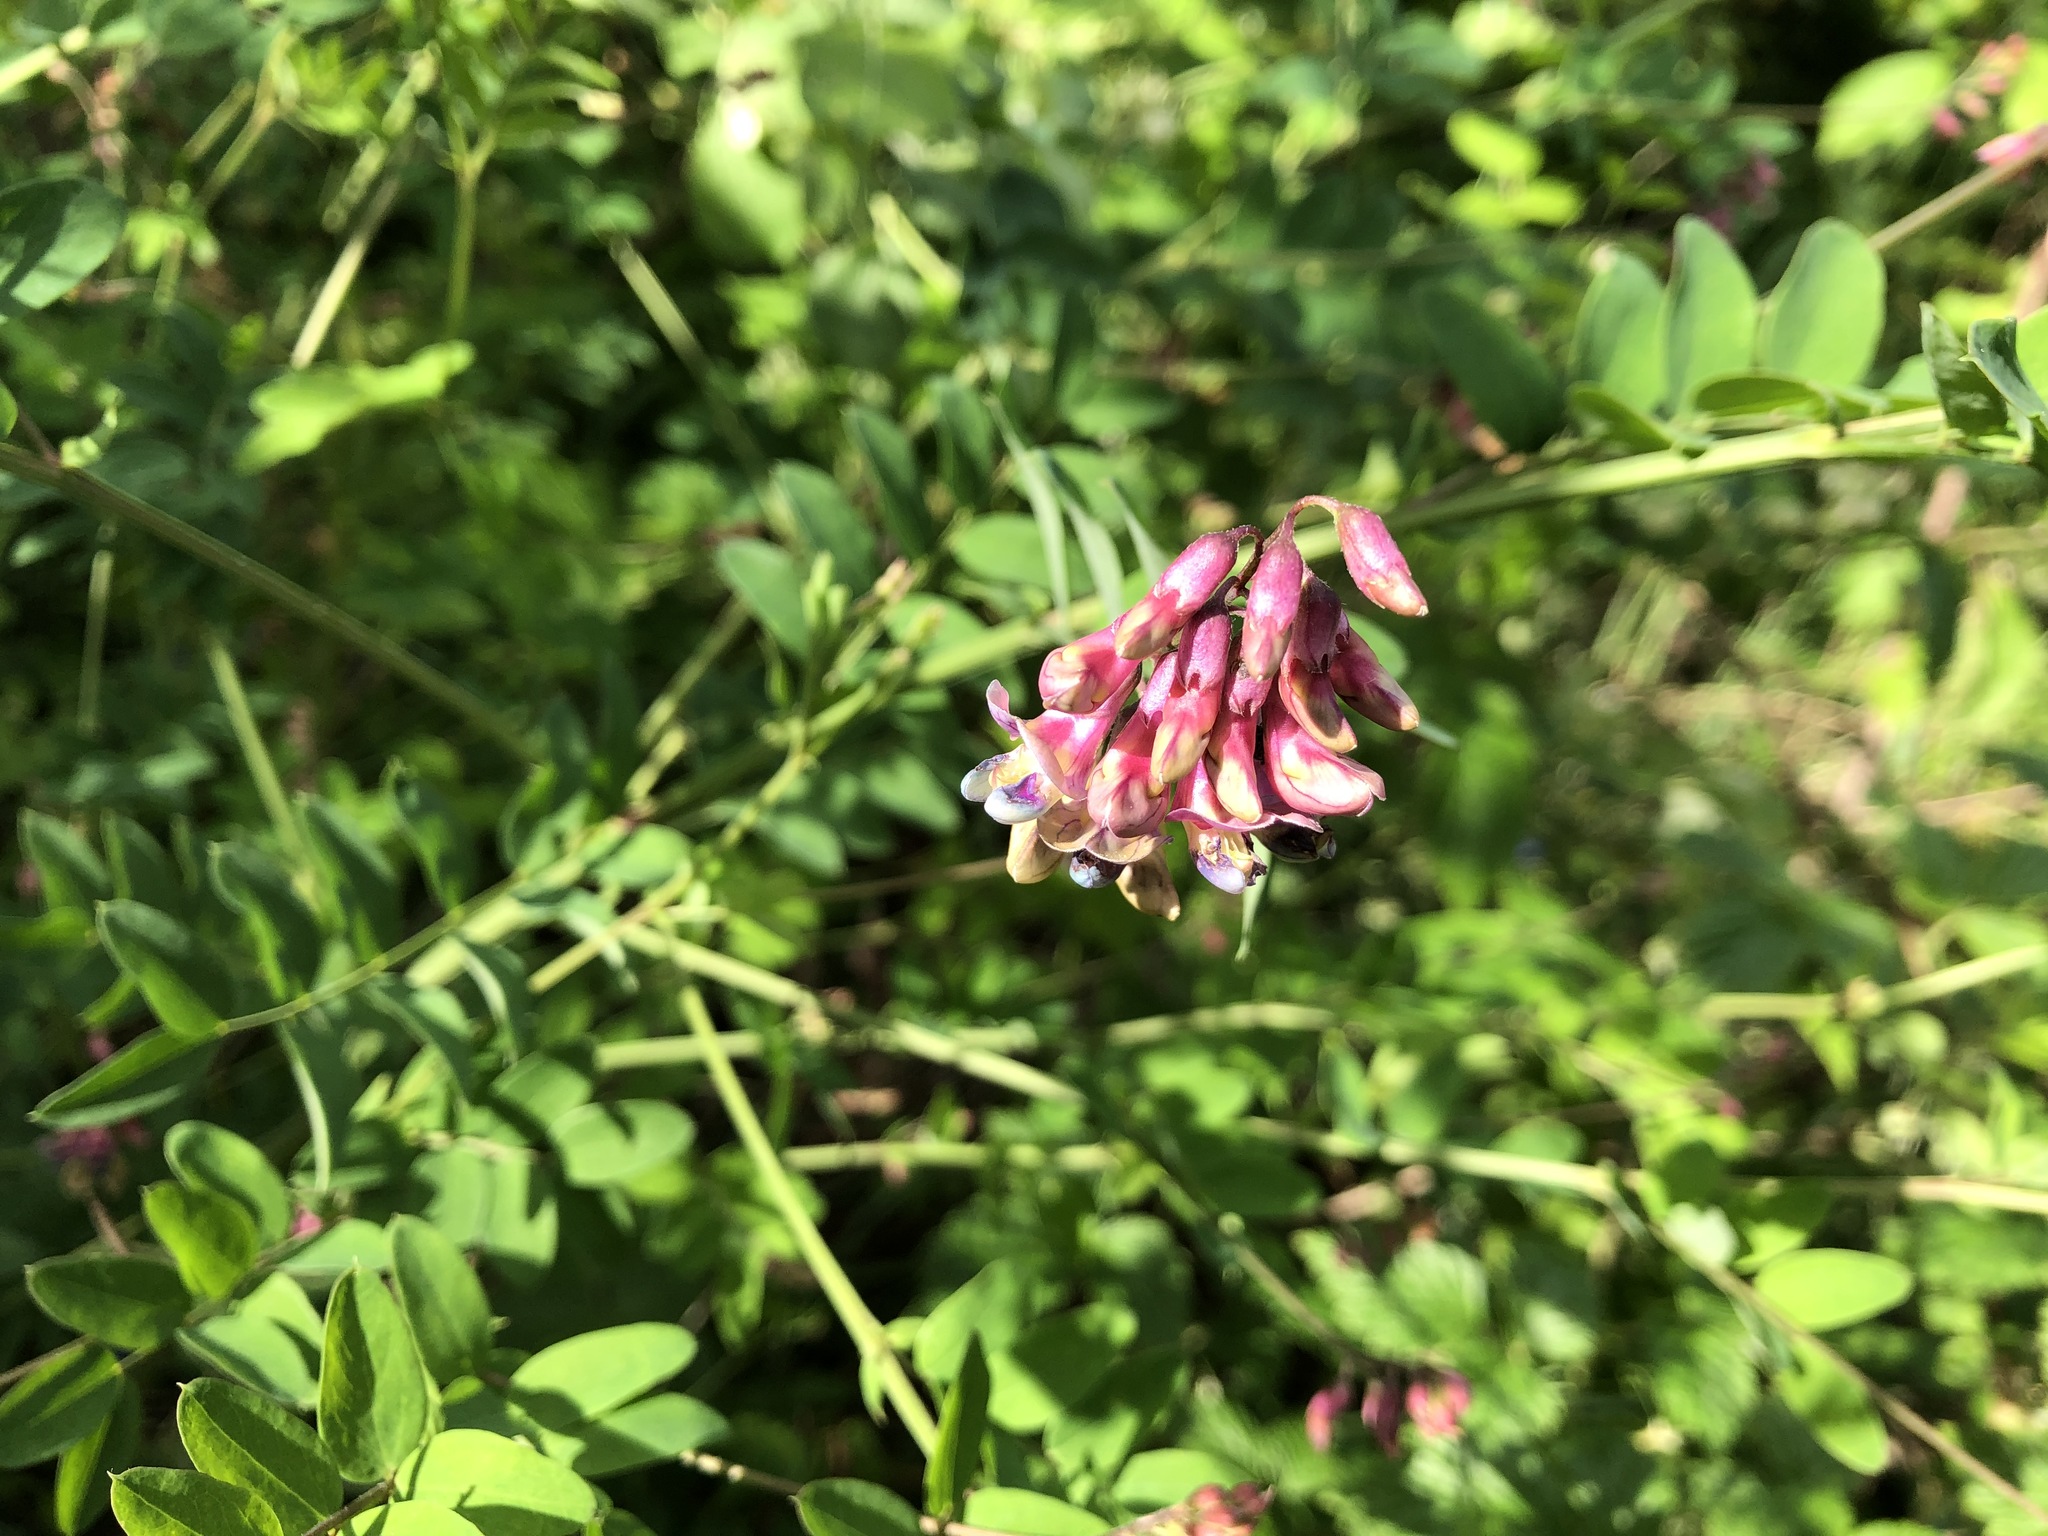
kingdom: Plantae
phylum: Tracheophyta
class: Magnoliopsida
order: Fabales
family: Fabaceae
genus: Lathyrus
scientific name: Lathyrus niger
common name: Black pea
